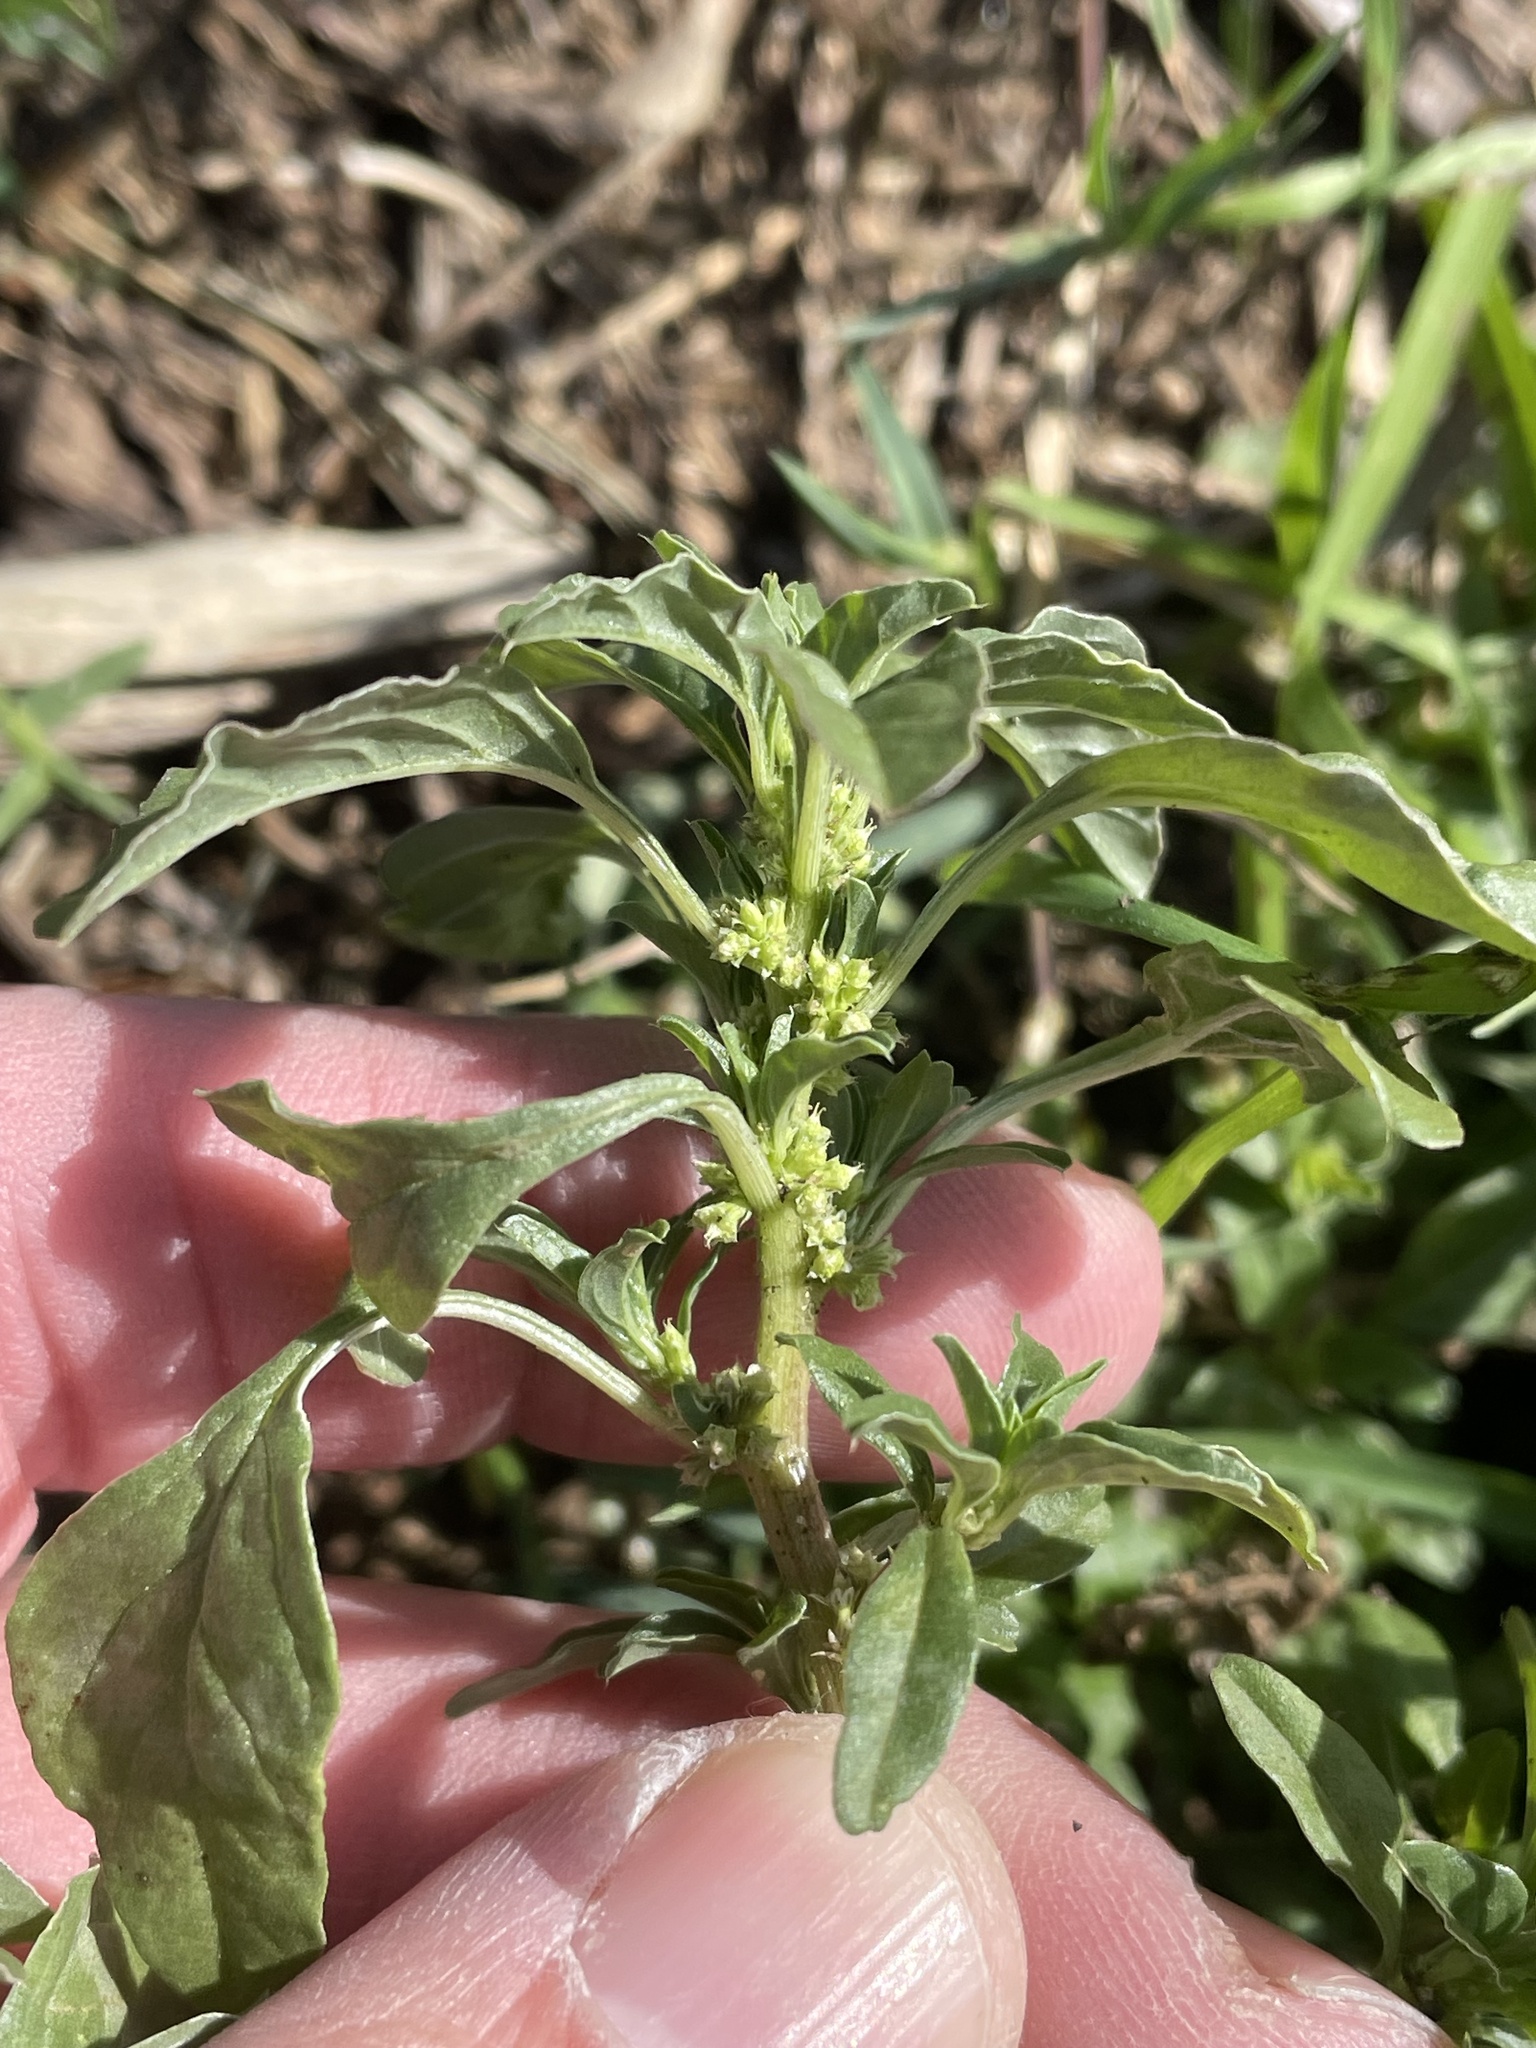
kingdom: Plantae
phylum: Tracheophyta
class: Magnoliopsida
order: Caryophyllales
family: Amaranthaceae
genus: Amaranthus
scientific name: Amaranthus polygonoides
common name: Tropical amaranth
